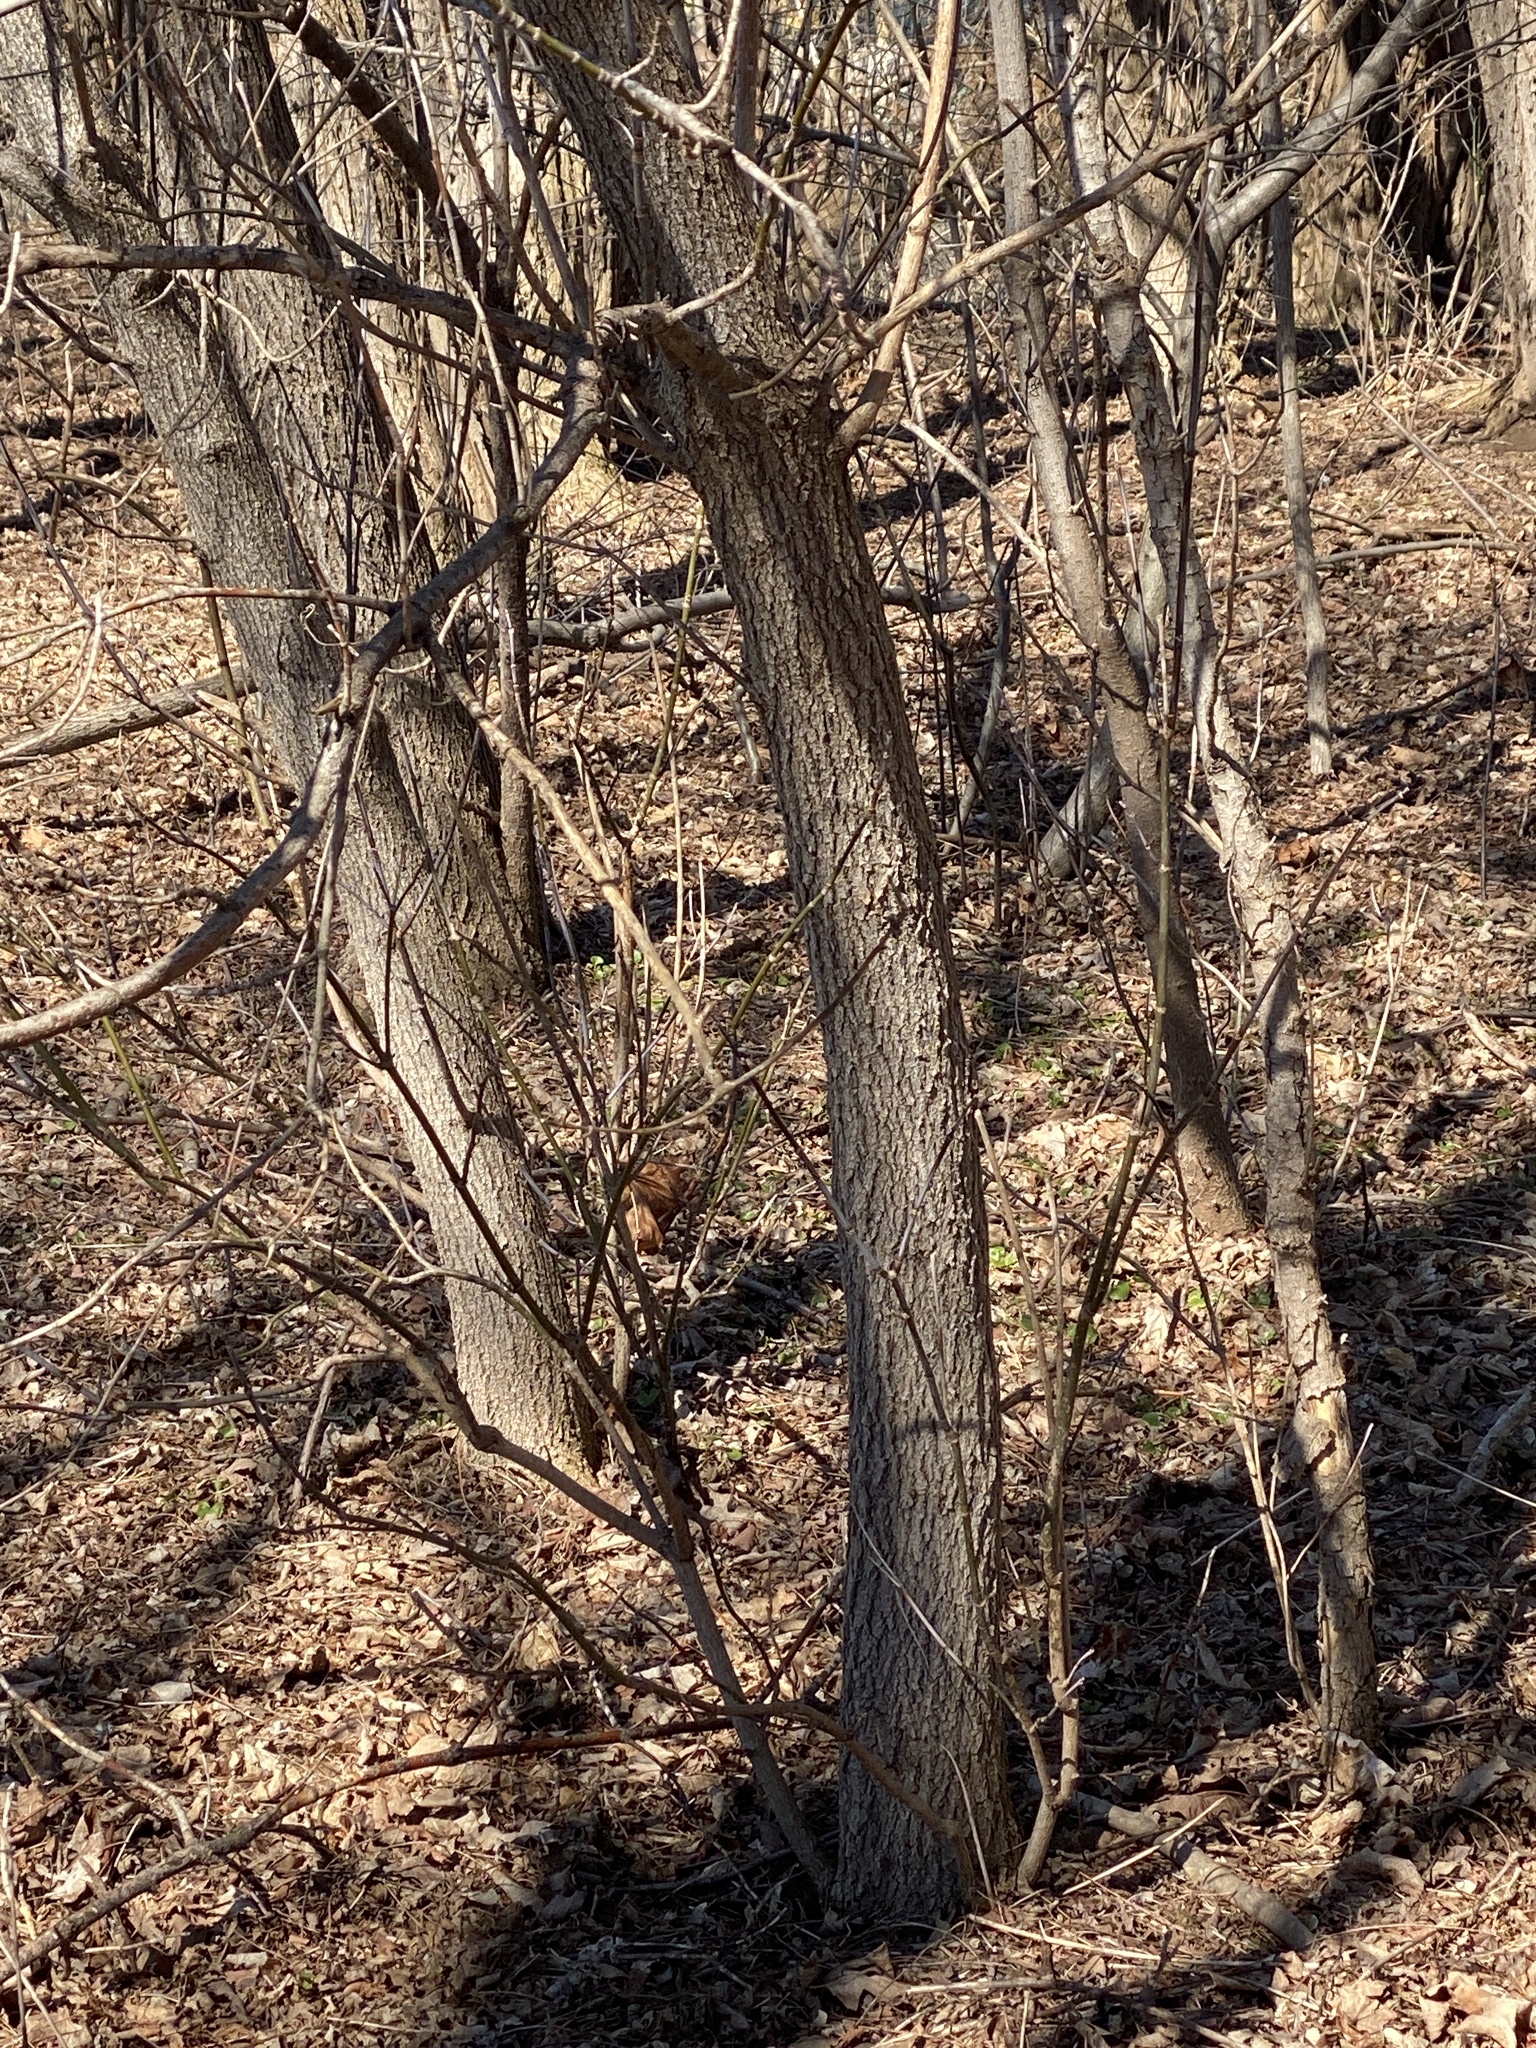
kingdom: Plantae
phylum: Tracheophyta
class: Magnoliopsida
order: Sapindales
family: Sapindaceae
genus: Acer
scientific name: Acer negundo
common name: Ashleaf maple
